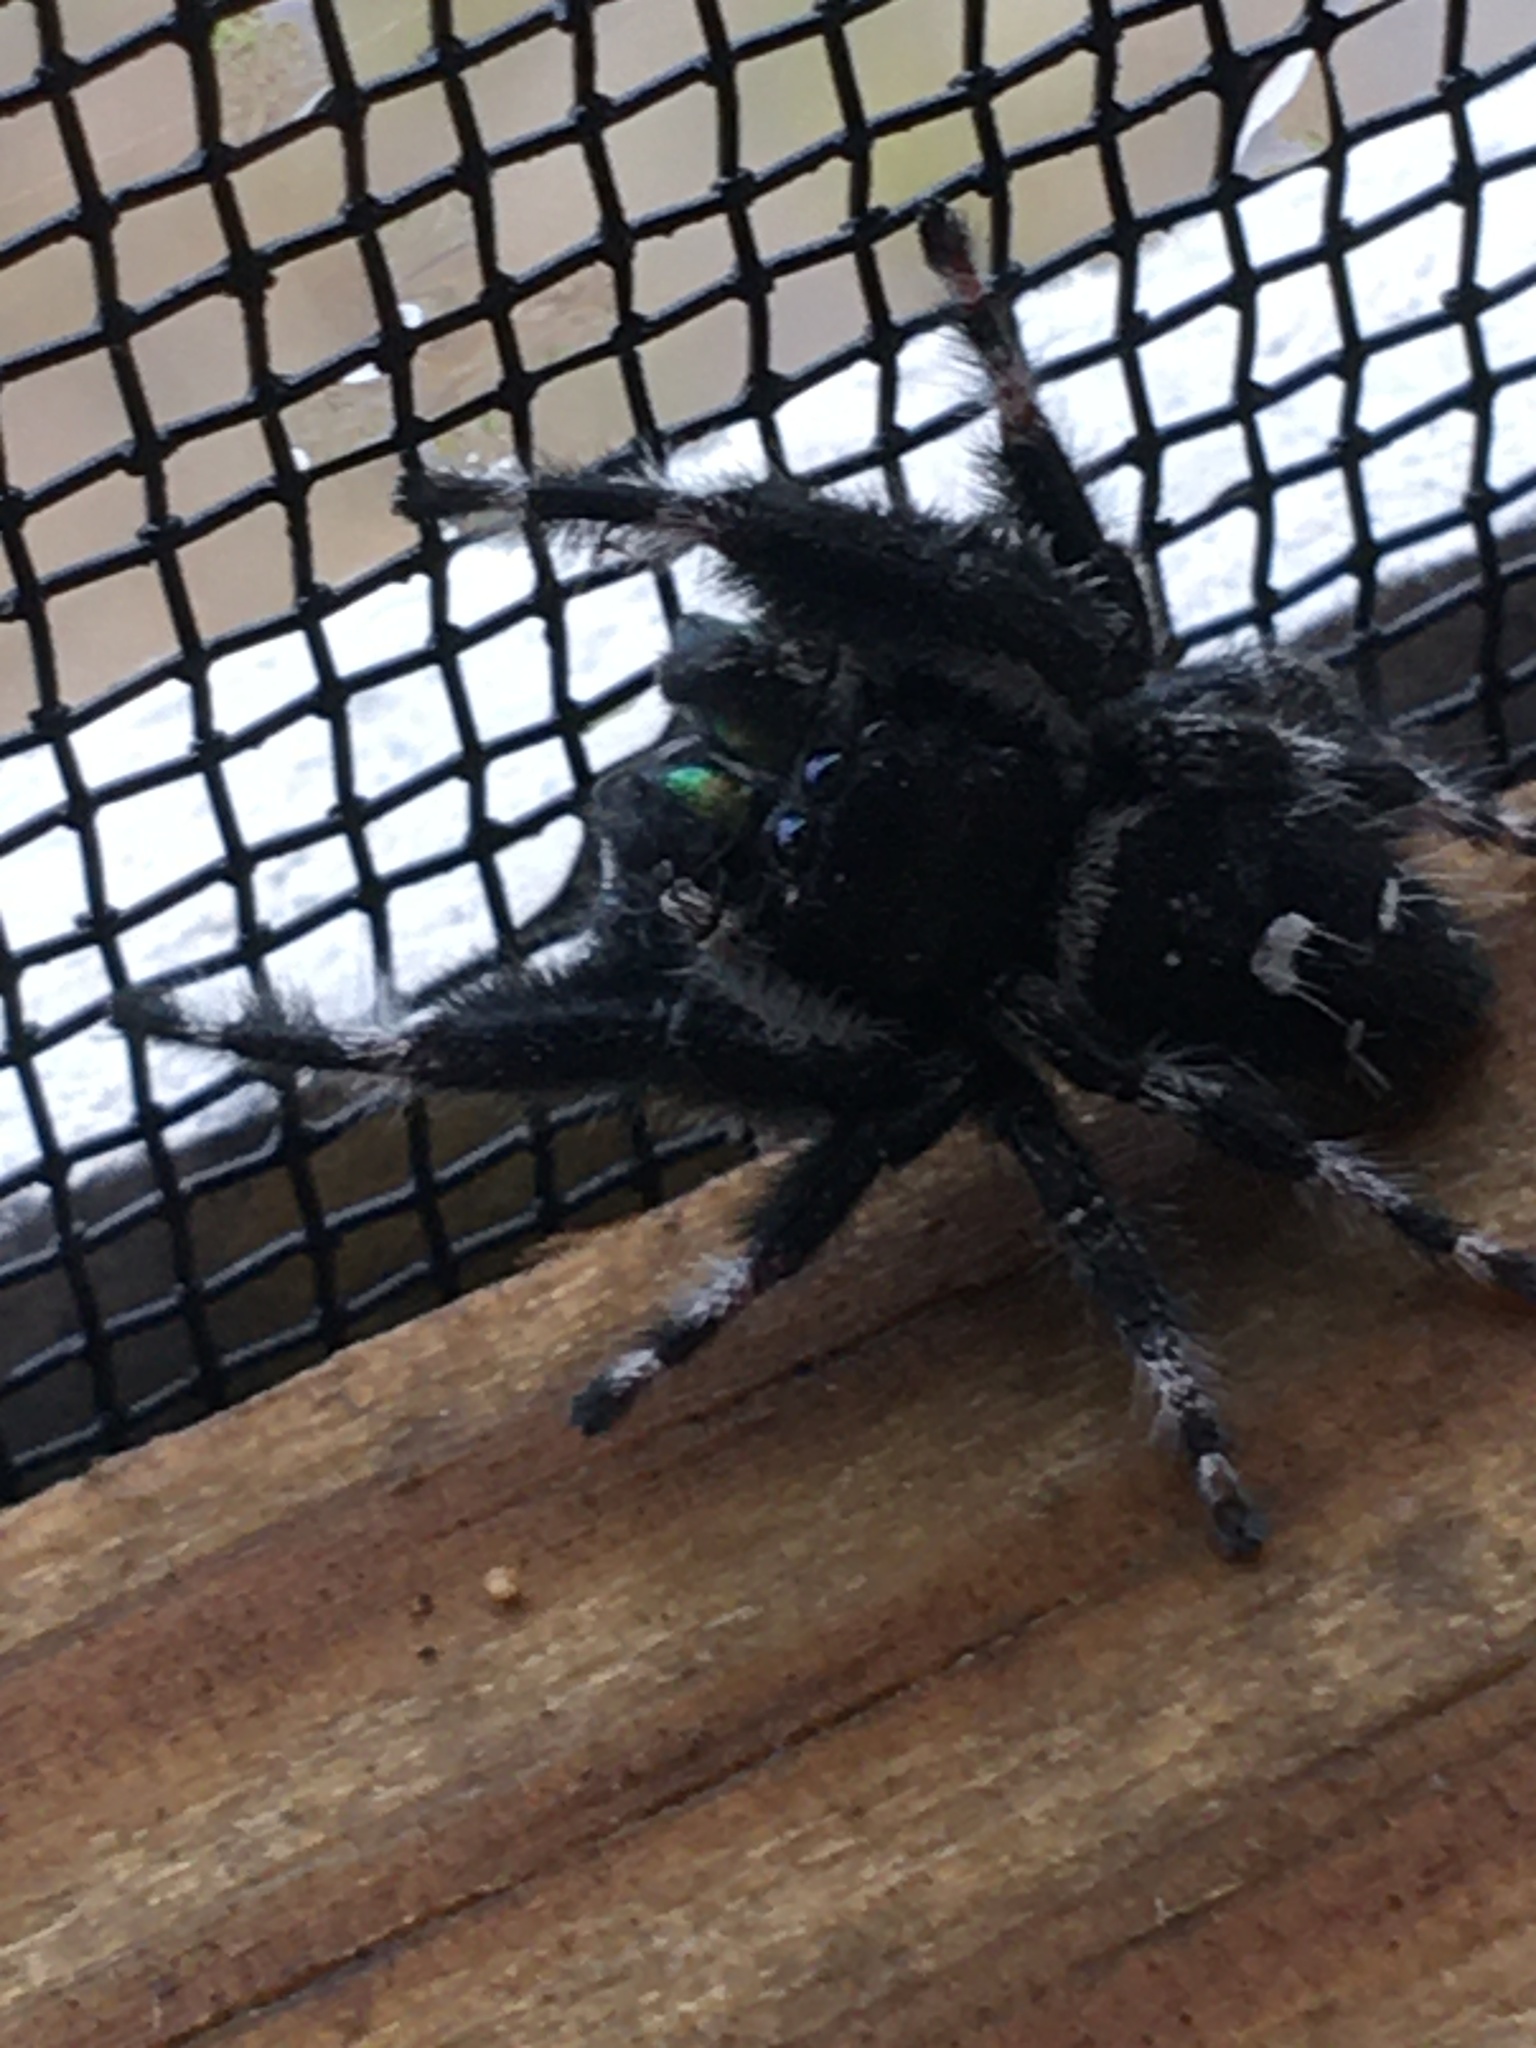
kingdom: Animalia
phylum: Arthropoda
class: Arachnida
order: Araneae
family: Salticidae
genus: Phidippus
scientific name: Phidippus audax
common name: Bold jumper
